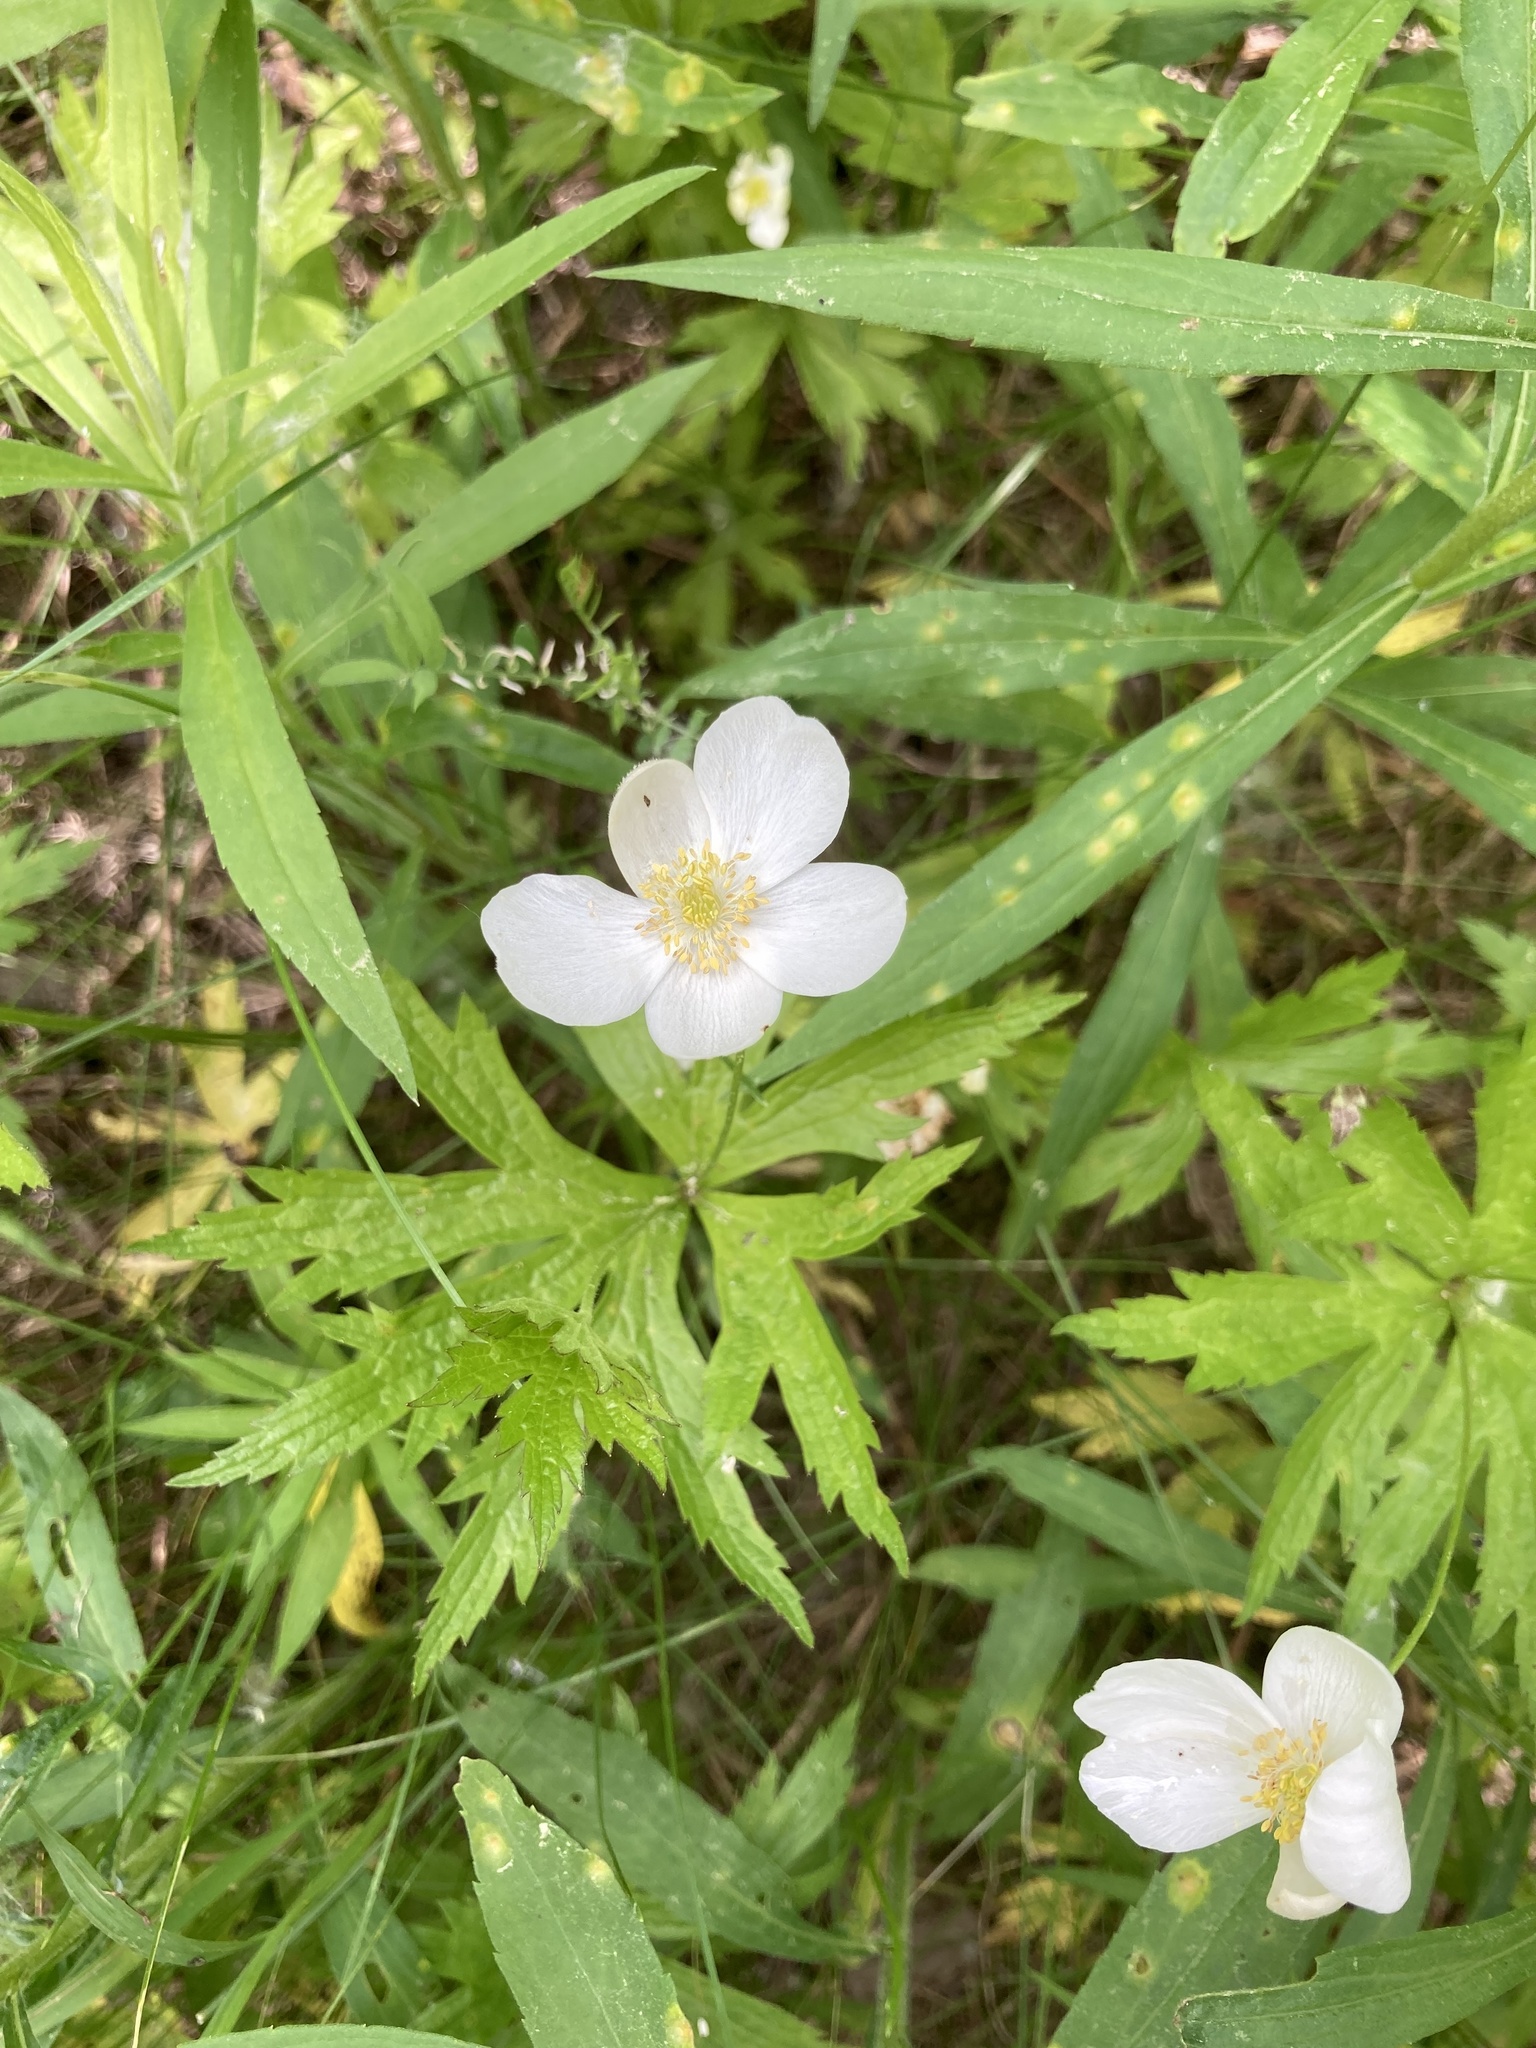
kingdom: Plantae
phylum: Tracheophyta
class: Magnoliopsida
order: Ranunculales
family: Ranunculaceae
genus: Anemonastrum
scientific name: Anemonastrum canadense
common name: Canada anemone
